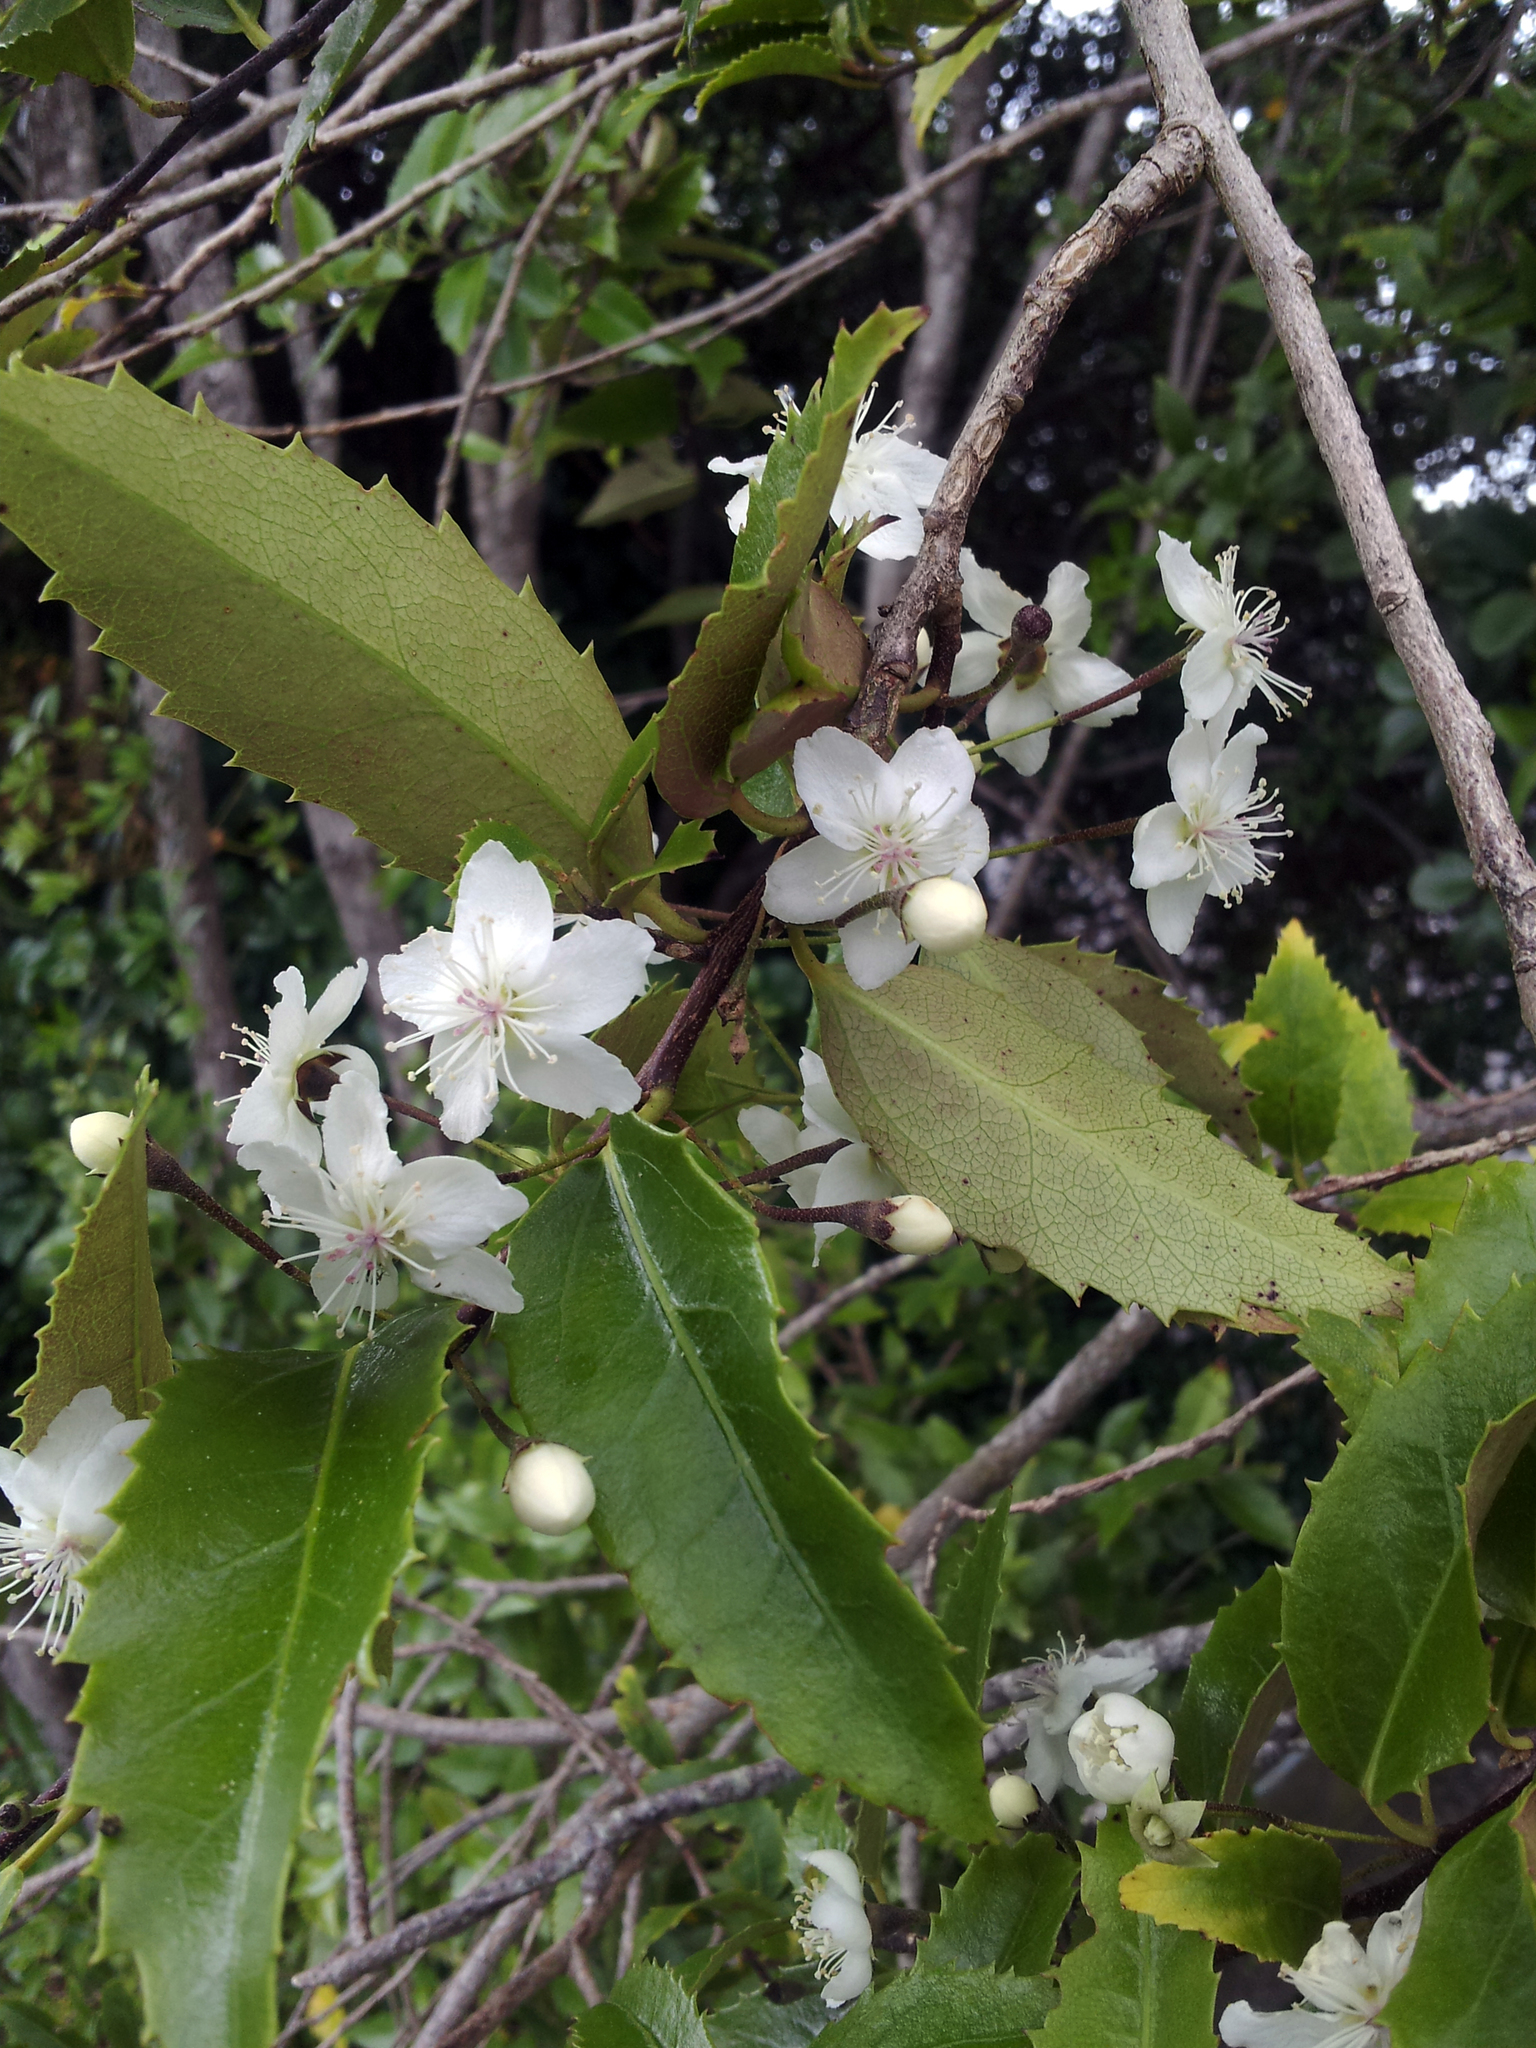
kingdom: Plantae
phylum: Tracheophyta
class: Magnoliopsida
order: Malvales
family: Malvaceae
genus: Hoheria
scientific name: Hoheria ovata
